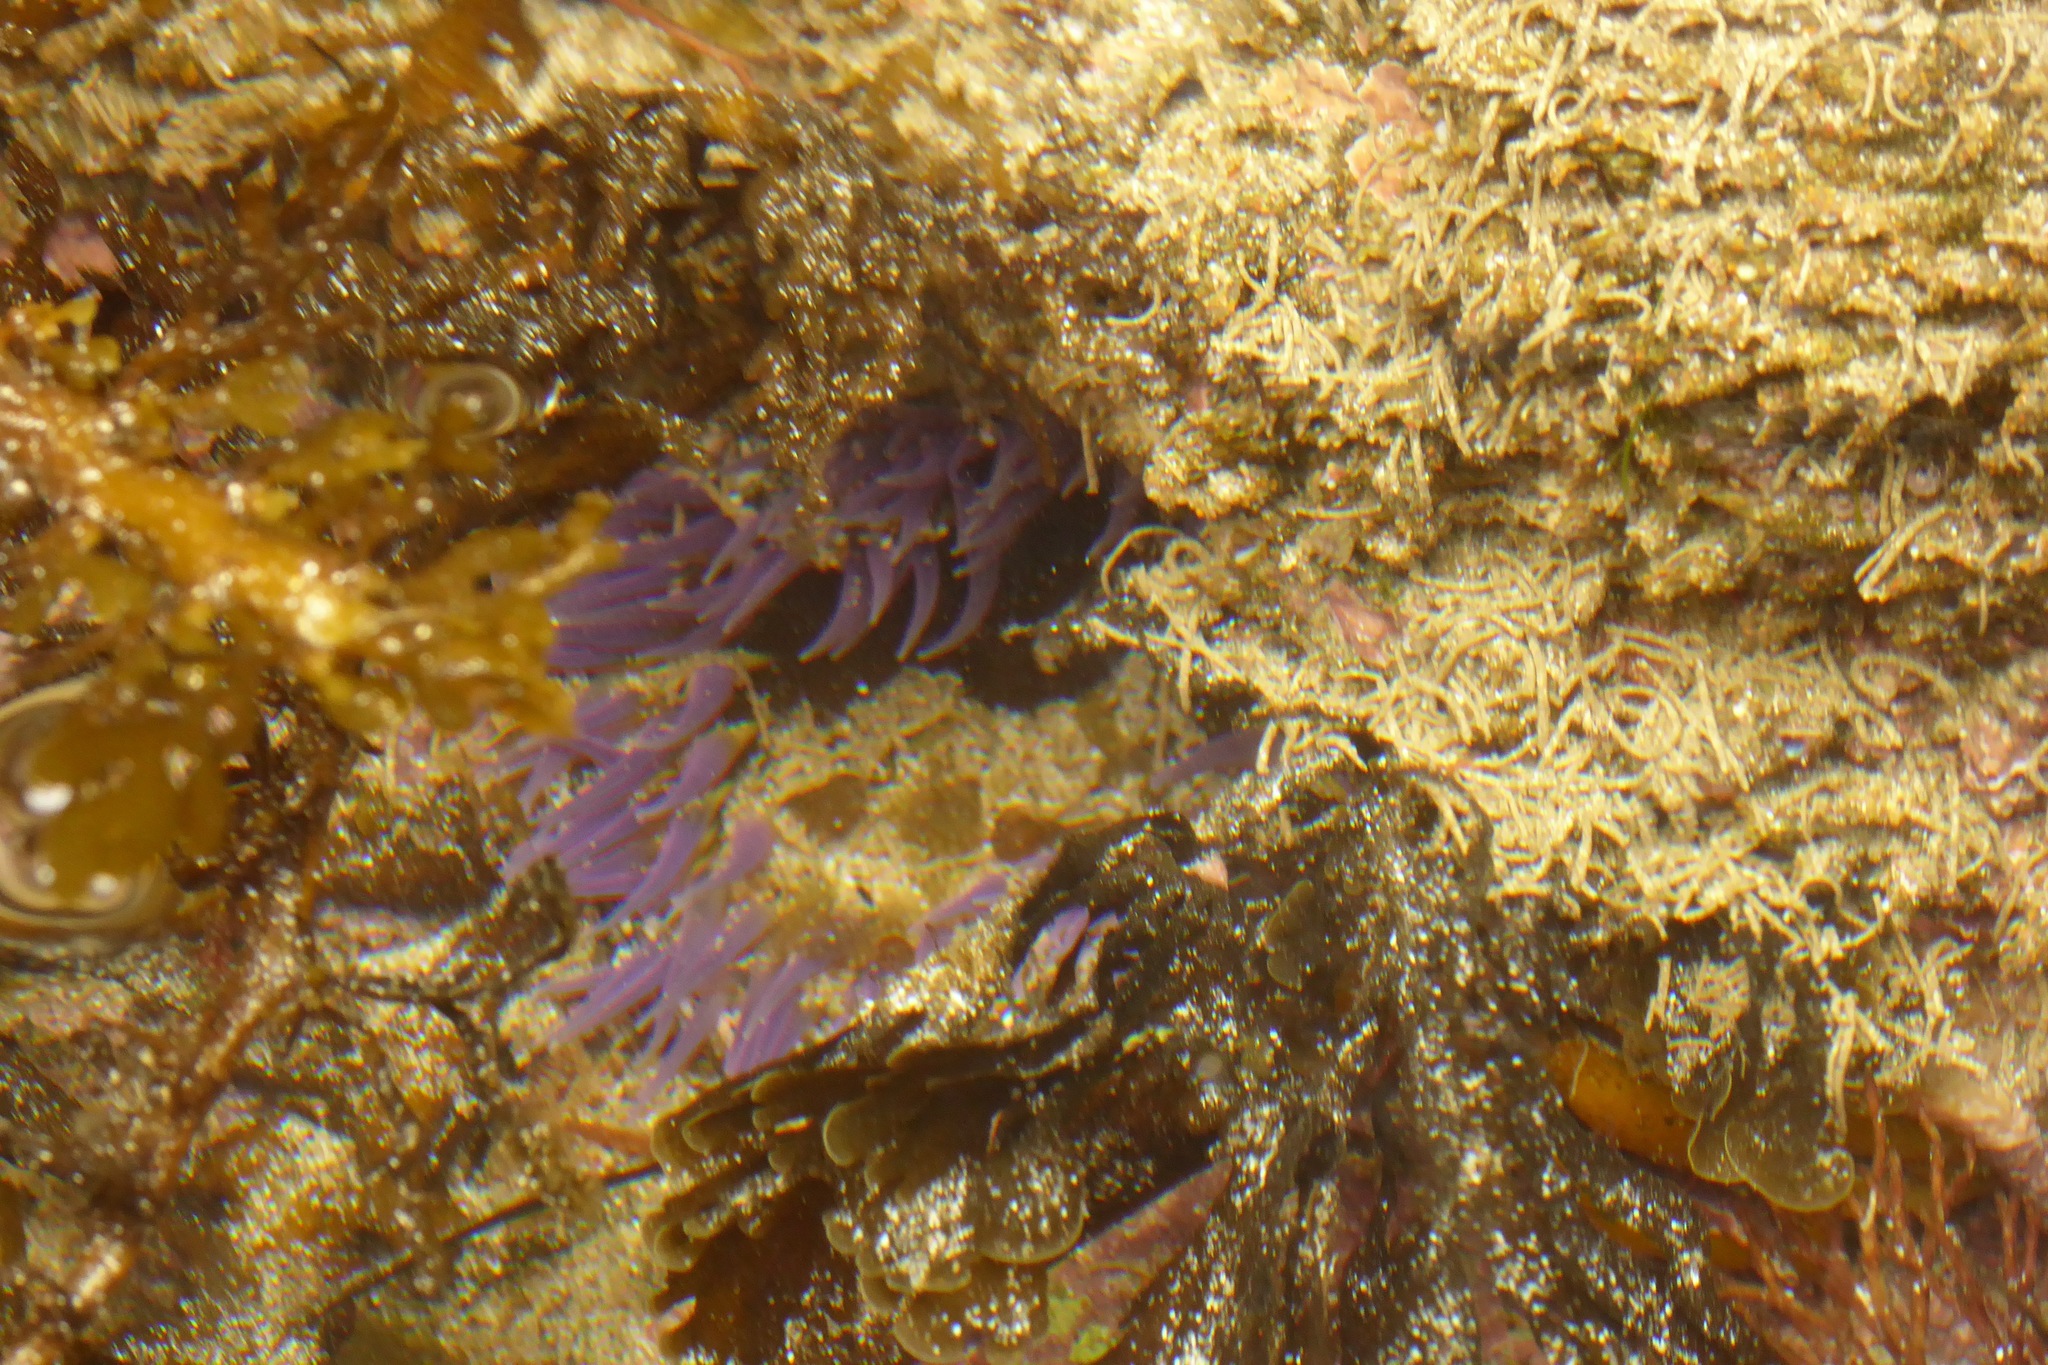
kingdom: Animalia
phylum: Cnidaria
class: Anthozoa
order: Actiniaria
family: Actiniidae
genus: Oulactis
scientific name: Oulactis magna
